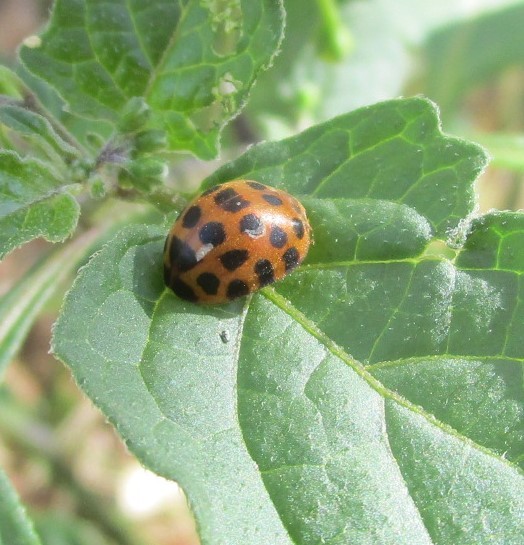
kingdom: Animalia
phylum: Arthropoda
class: Insecta
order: Coleoptera
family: Coccinellidae
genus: Henosepilachna
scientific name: Henosepilachna vigintioctopunctata
